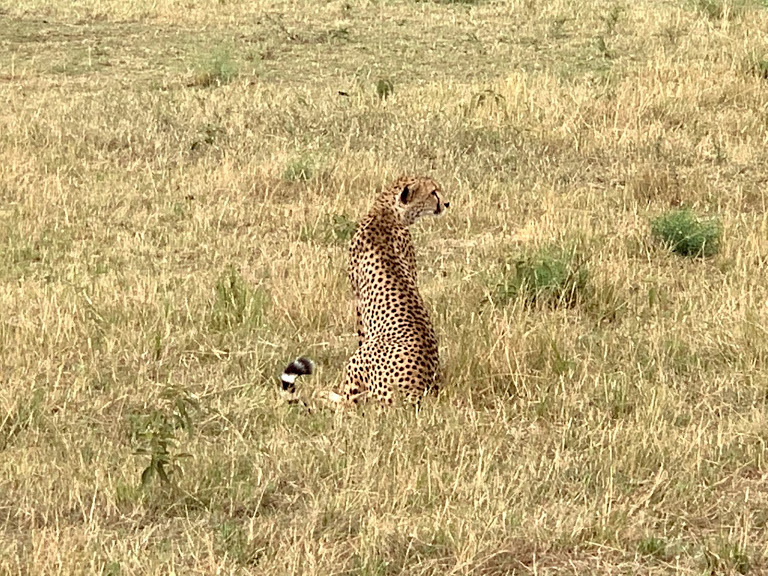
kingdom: Animalia
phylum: Chordata
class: Mammalia
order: Carnivora
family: Felidae
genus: Acinonyx
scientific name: Acinonyx jubatus
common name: Cheetah
